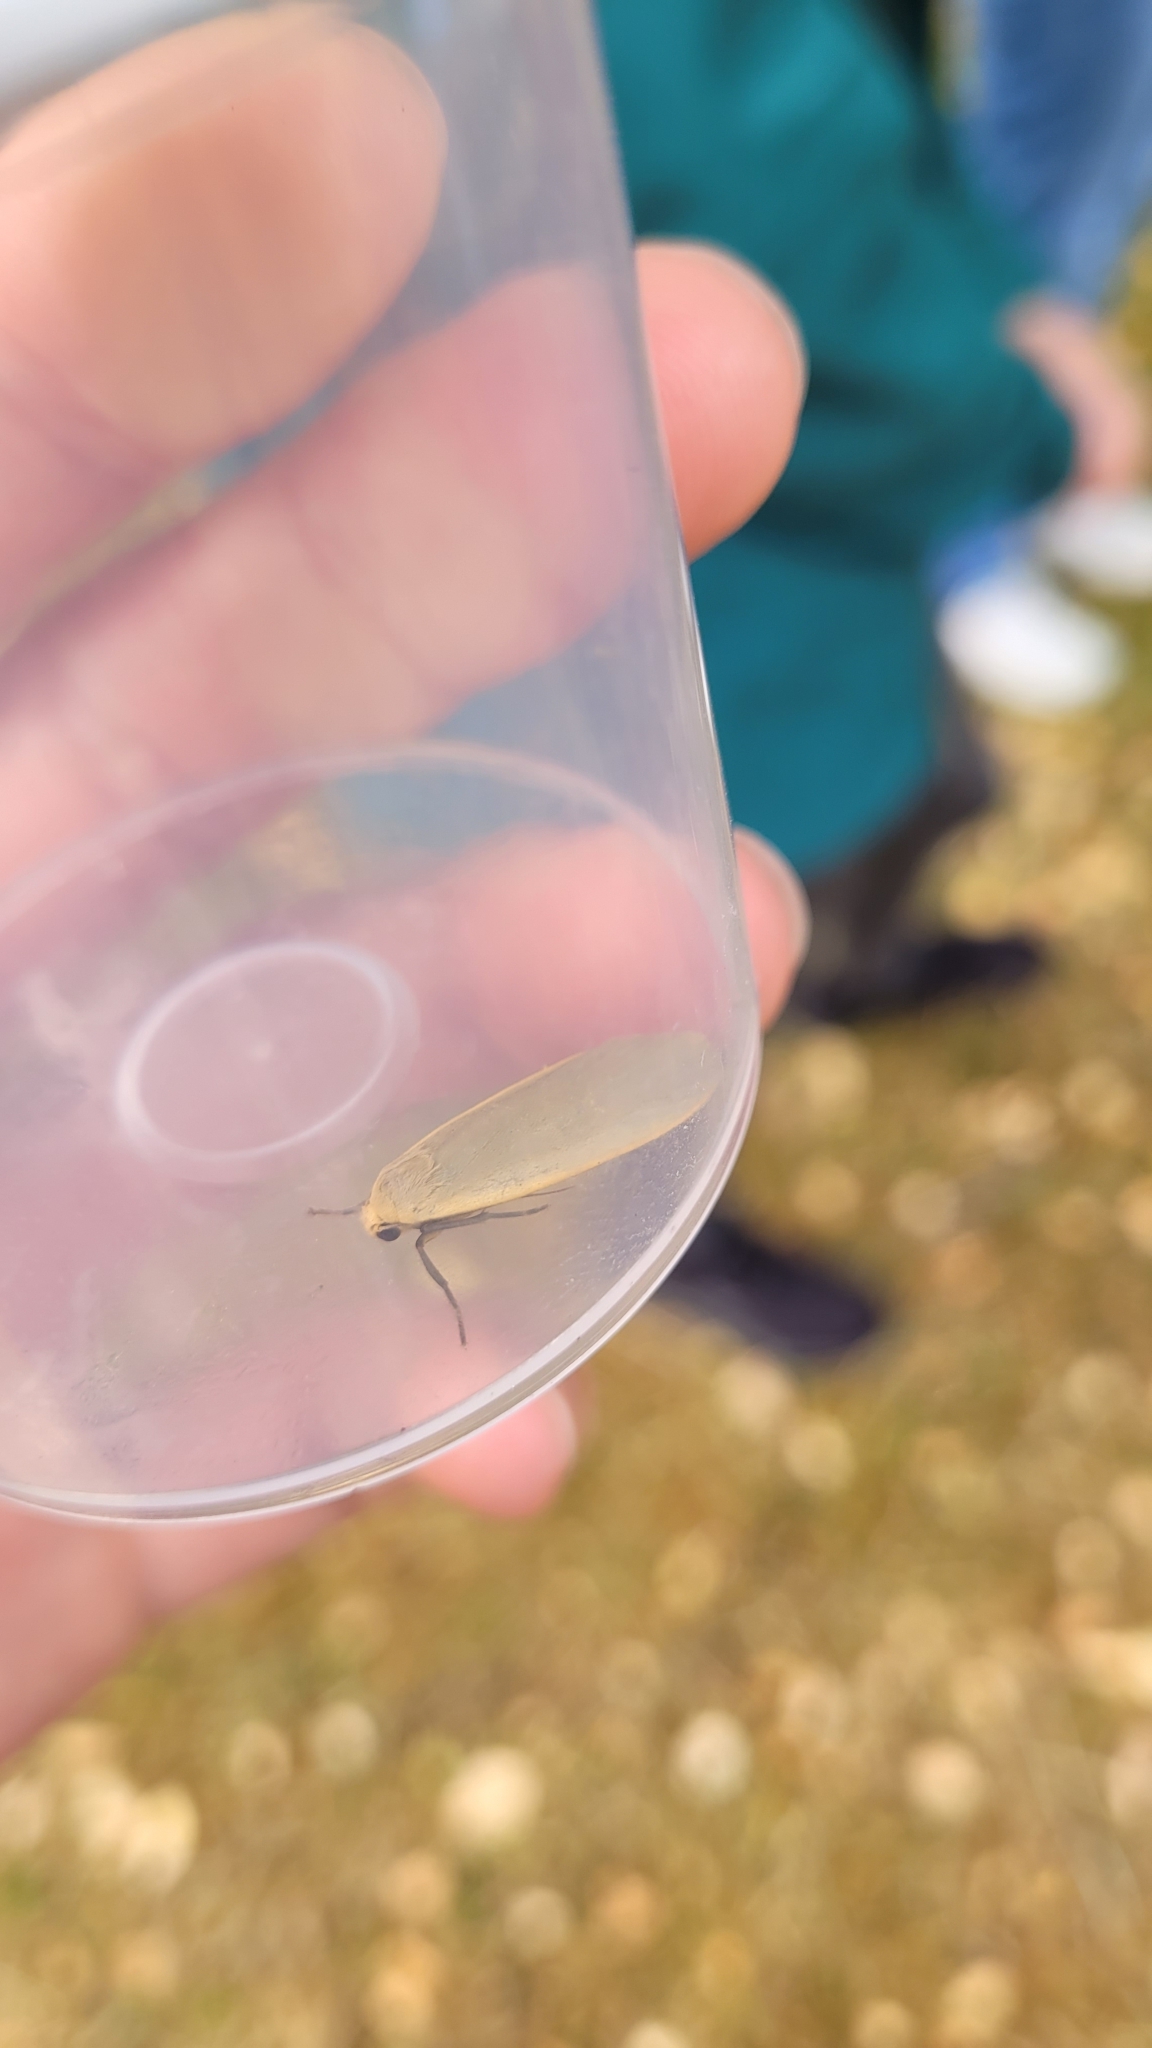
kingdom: Animalia
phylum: Arthropoda
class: Insecta
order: Lepidoptera
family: Erebidae
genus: Collita
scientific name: Collita griseola
